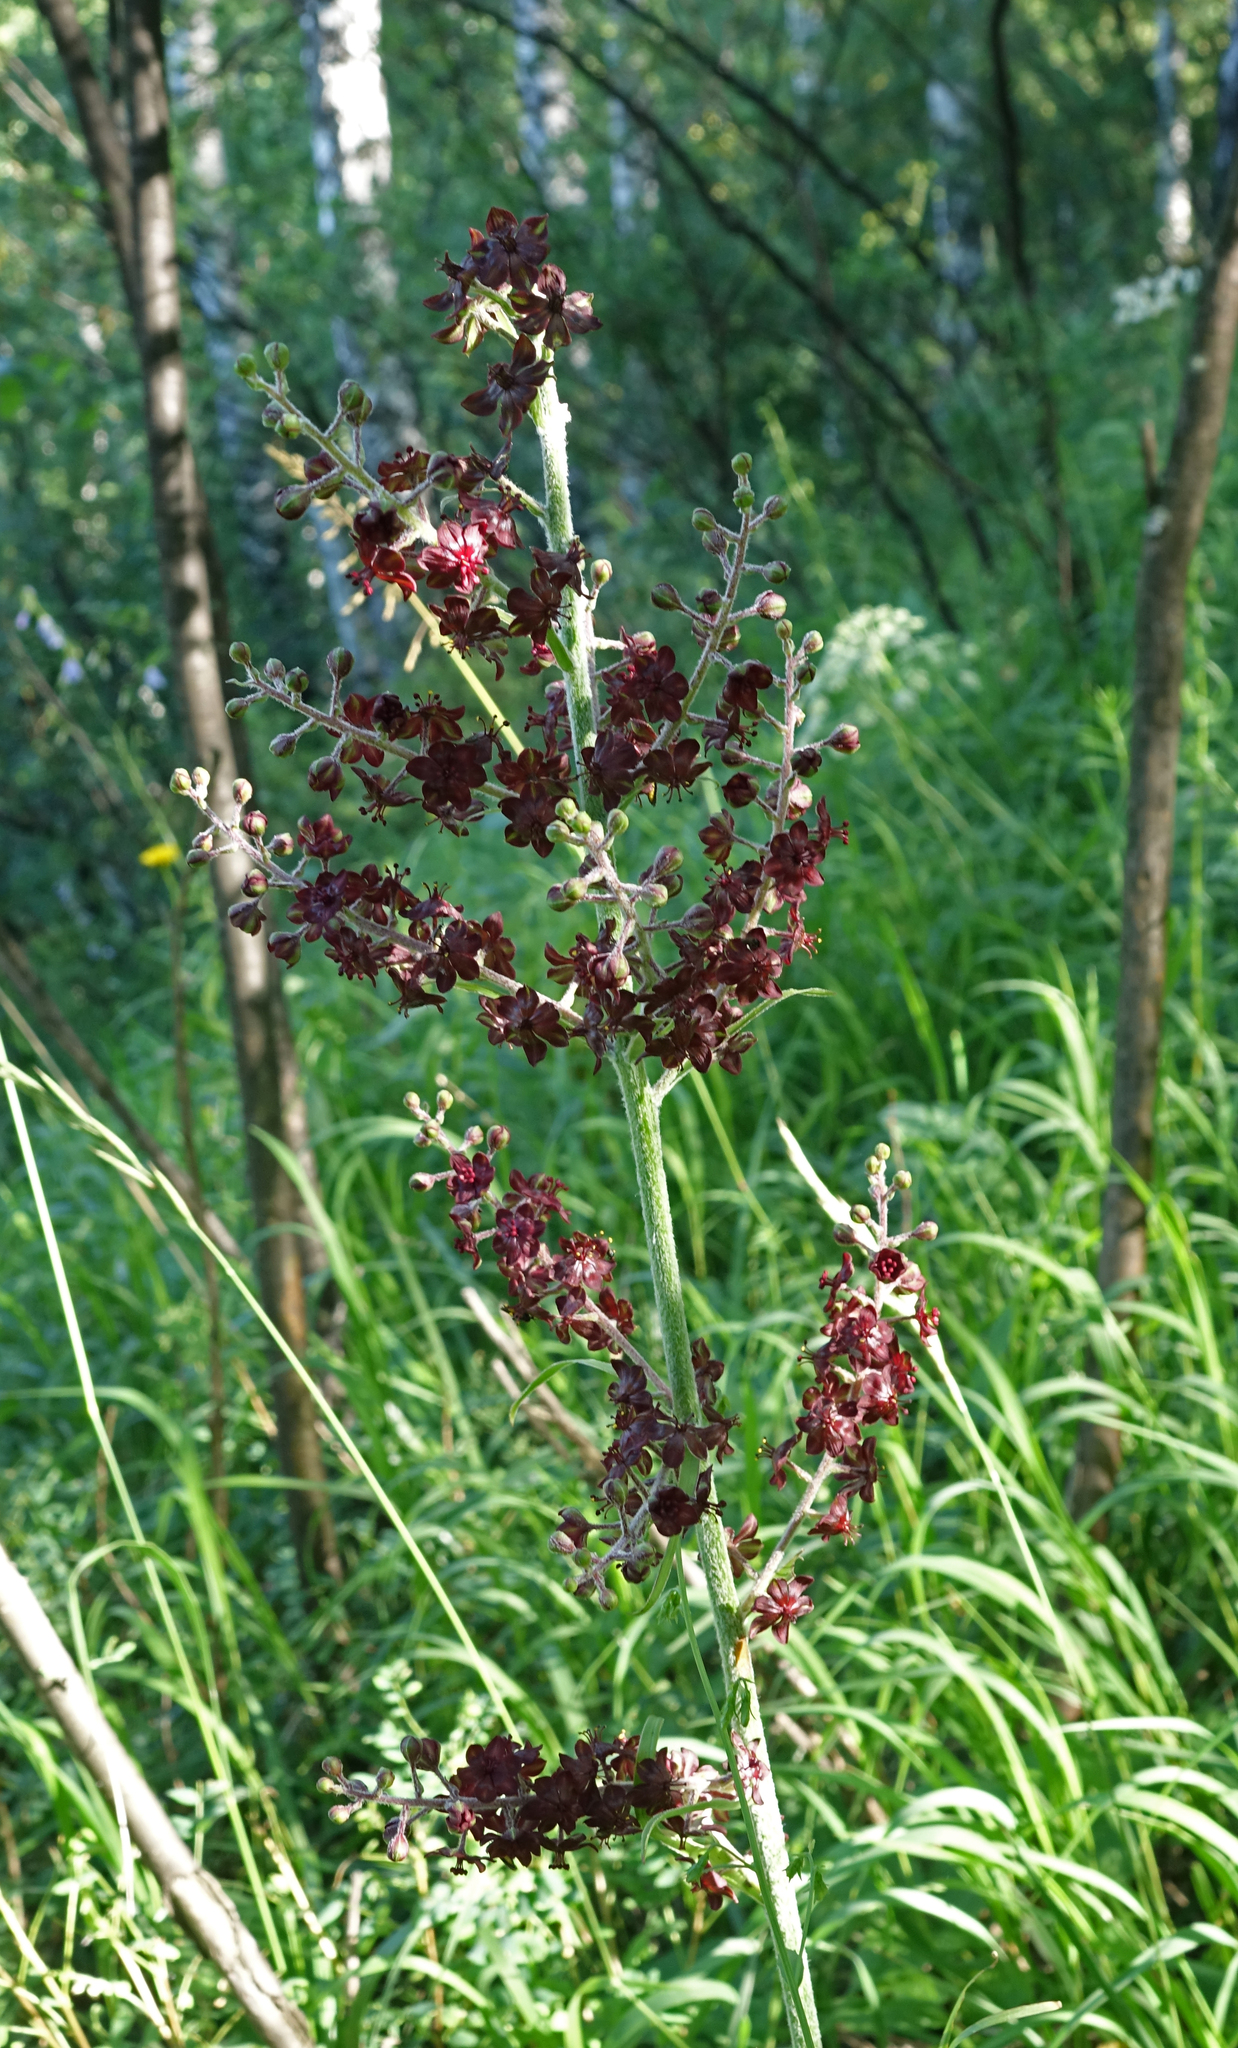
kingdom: Plantae
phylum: Tracheophyta
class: Liliopsida
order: Liliales
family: Melanthiaceae
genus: Veratrum
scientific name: Veratrum nigrum
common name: Black veratrum
